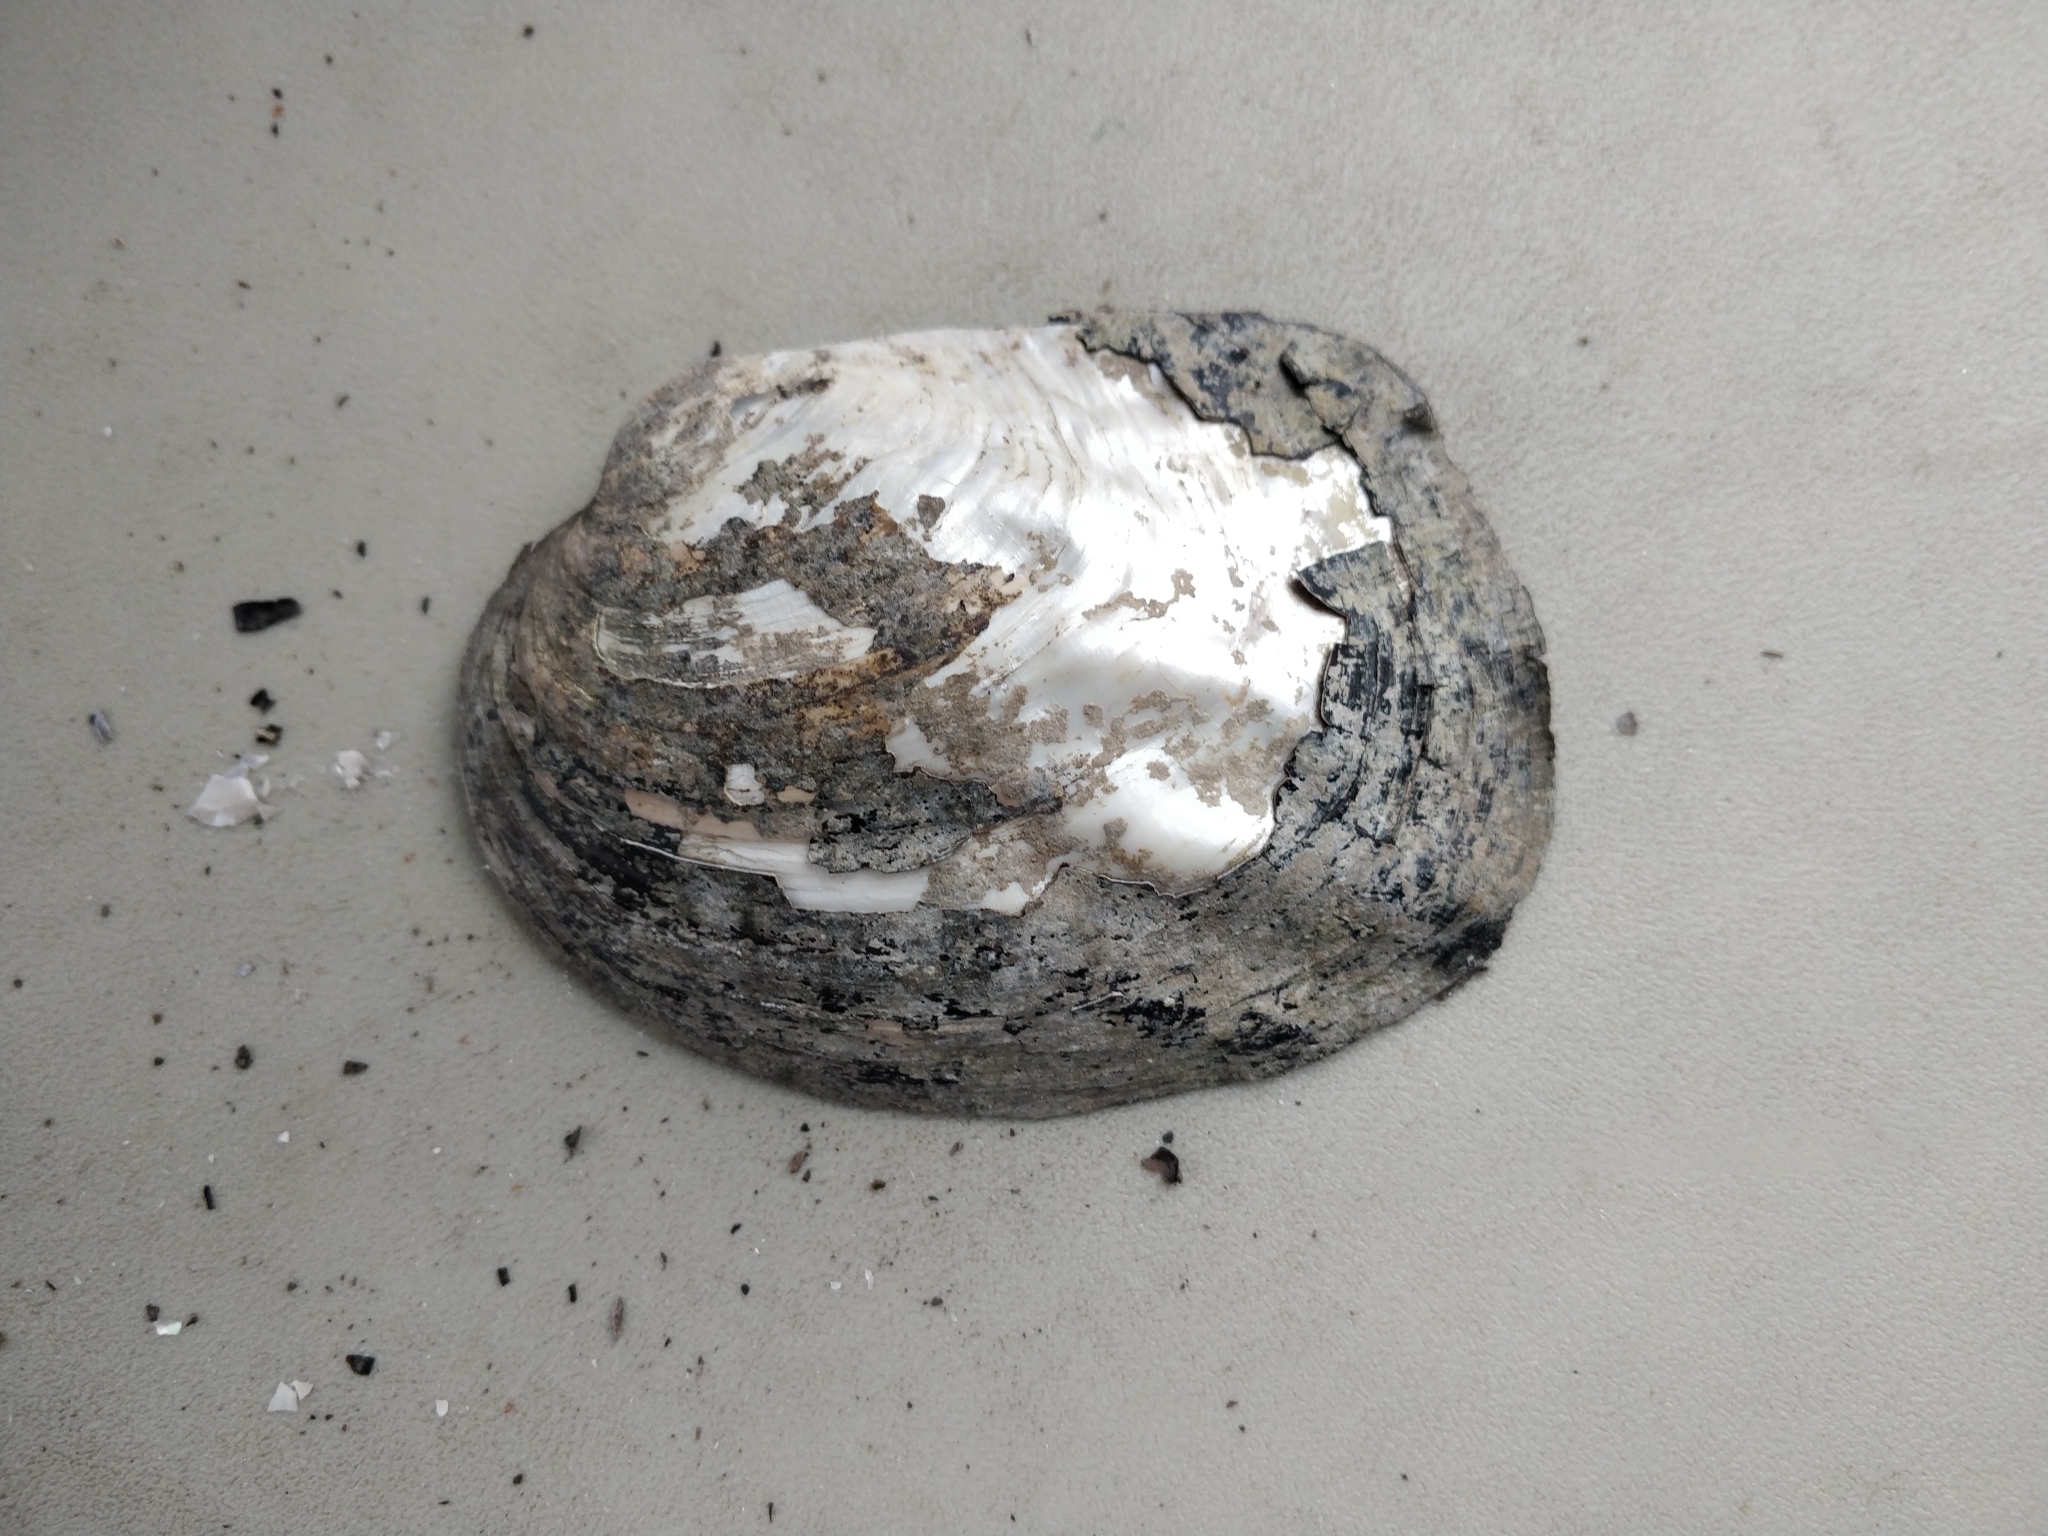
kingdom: Animalia
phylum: Mollusca
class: Bivalvia
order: Unionida
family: Unionidae
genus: Amblema
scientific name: Amblema plicata
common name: Threeridge
